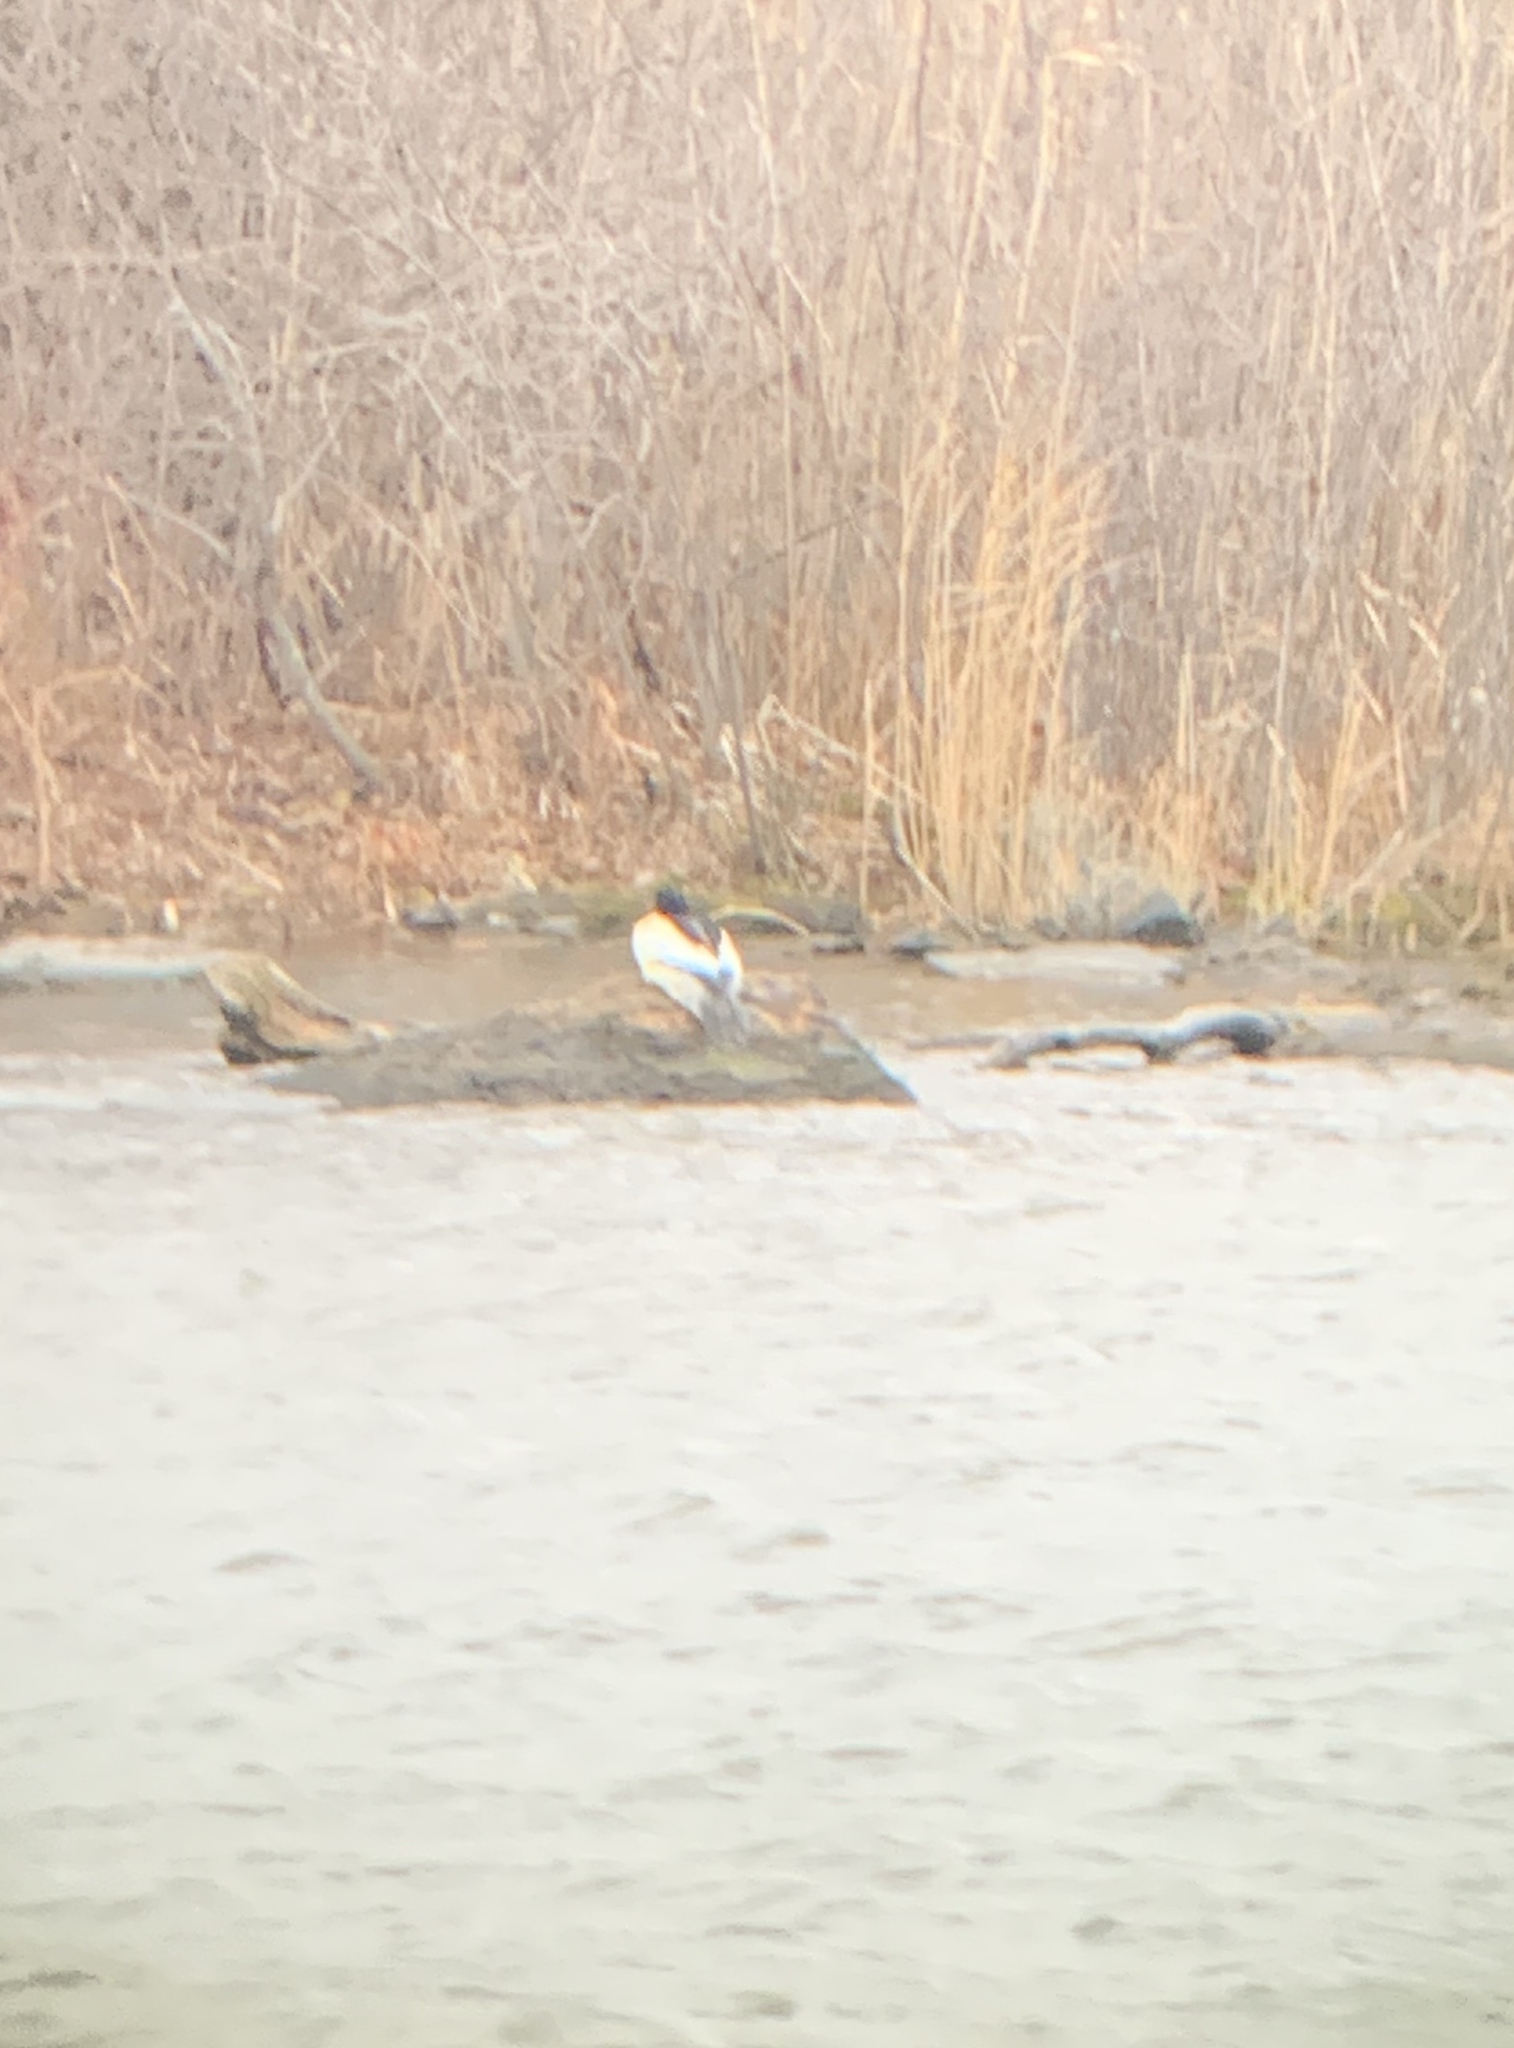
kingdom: Animalia
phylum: Chordata
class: Aves
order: Anseriformes
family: Anatidae
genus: Mergus
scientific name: Mergus merganser
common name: Common merganser
